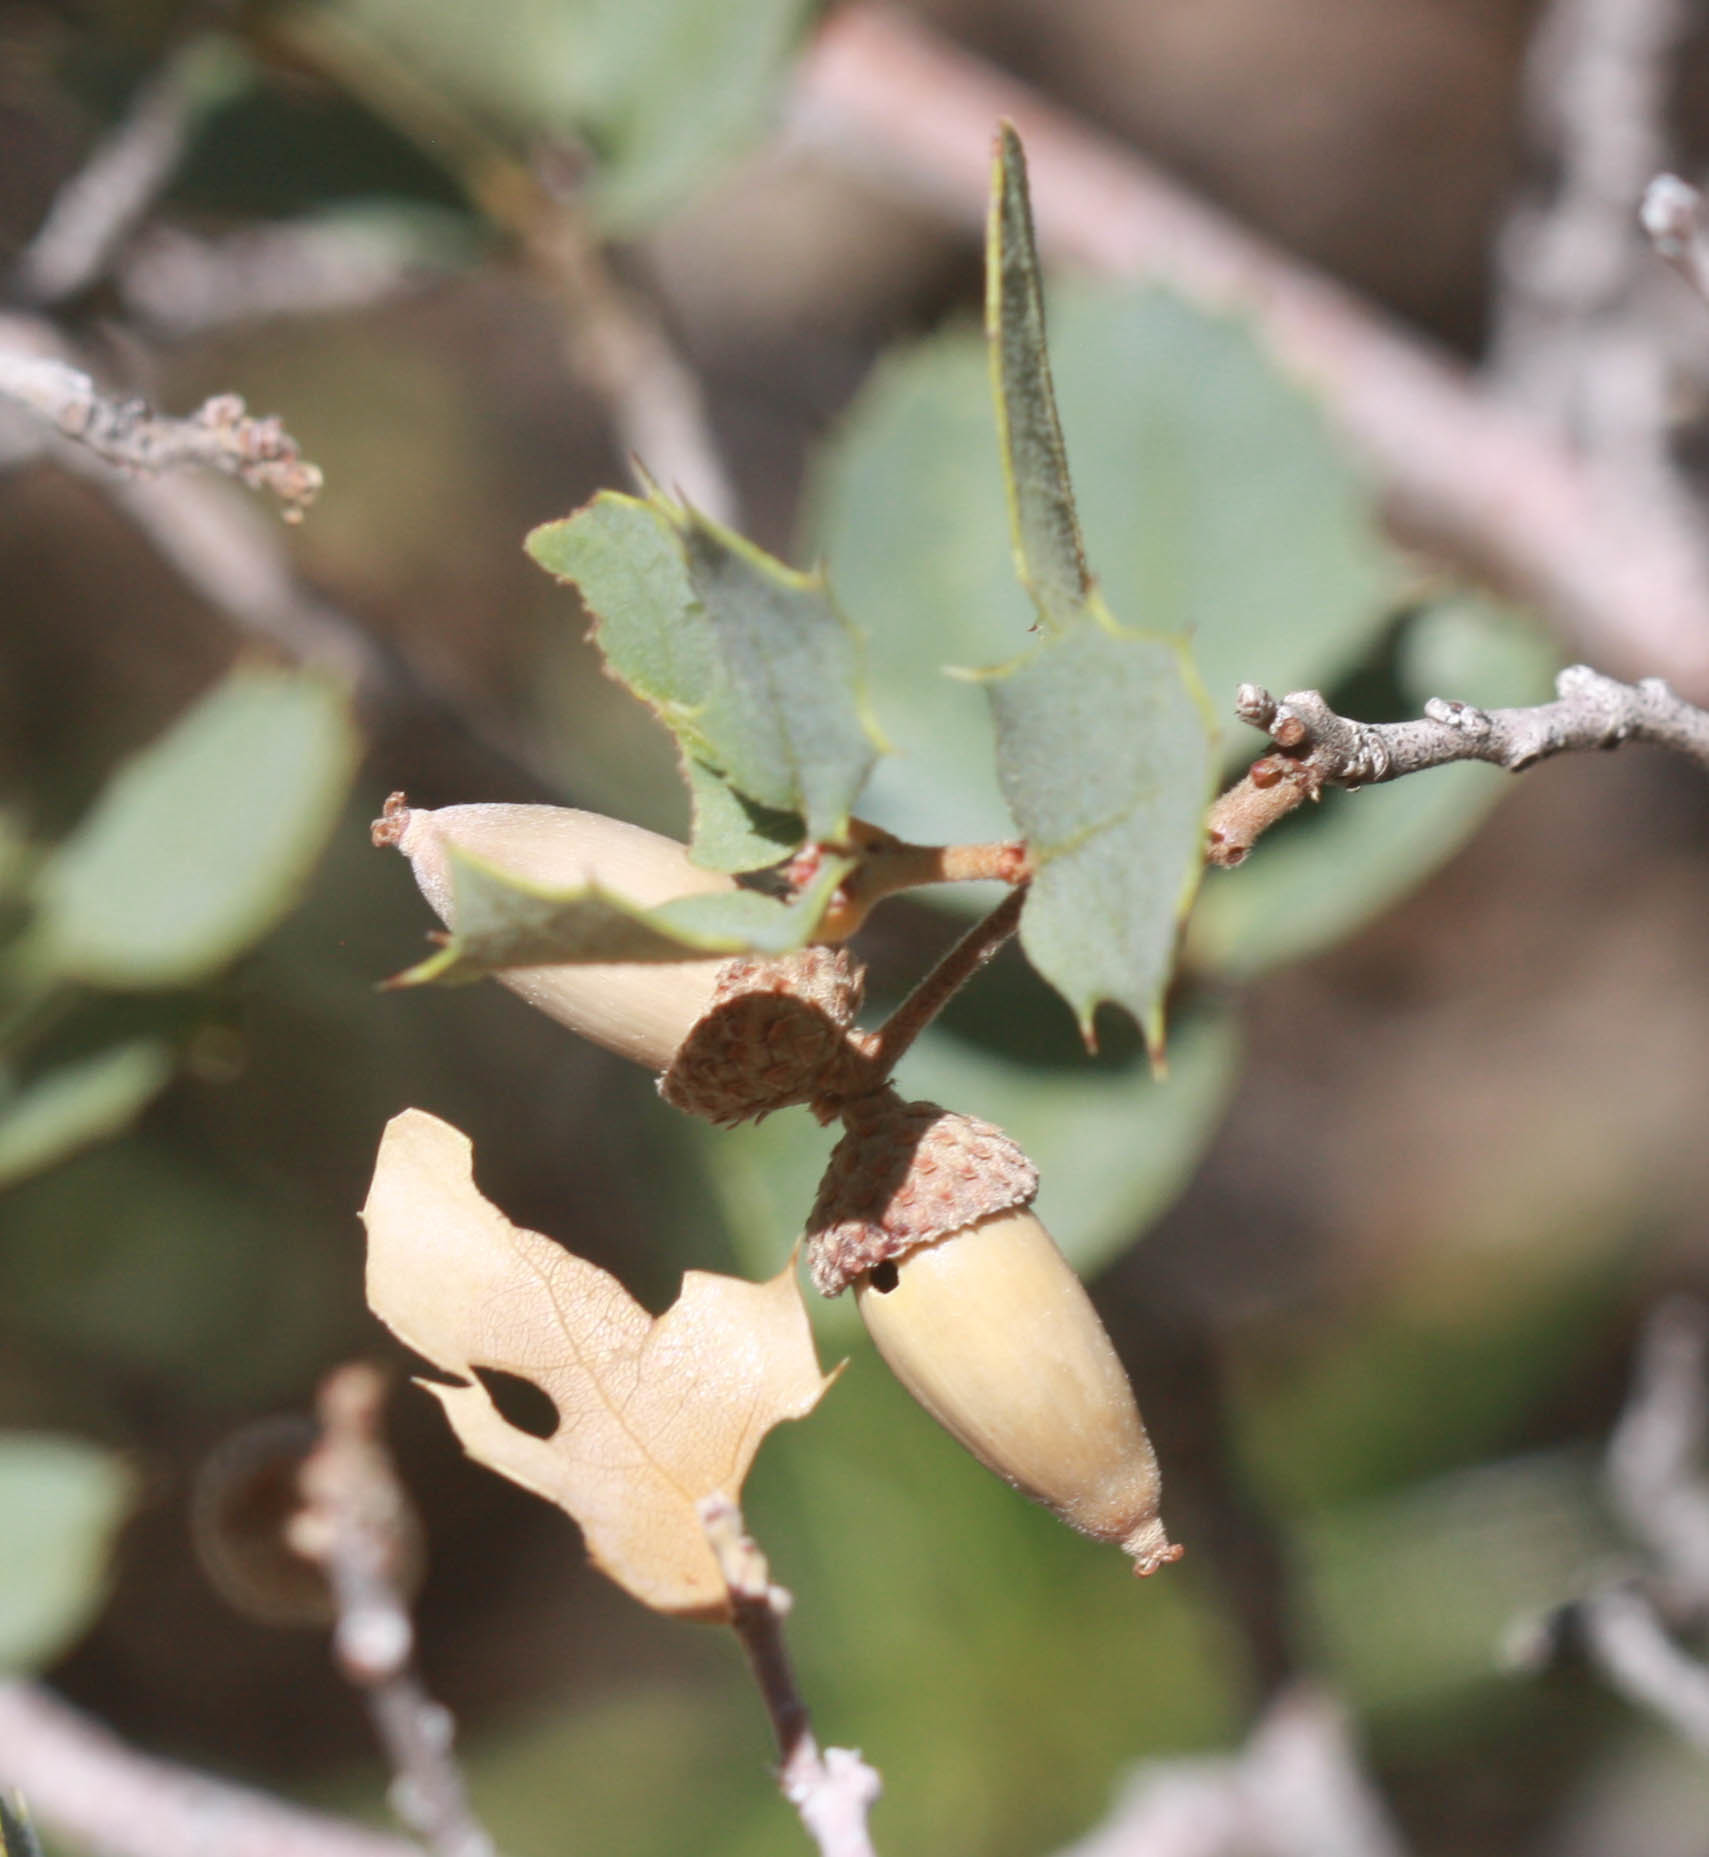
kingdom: Plantae
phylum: Tracheophyta
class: Magnoliopsida
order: Fagales
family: Fagaceae
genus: Quercus
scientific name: Quercus turbinella
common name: Sonoran scrub oak
